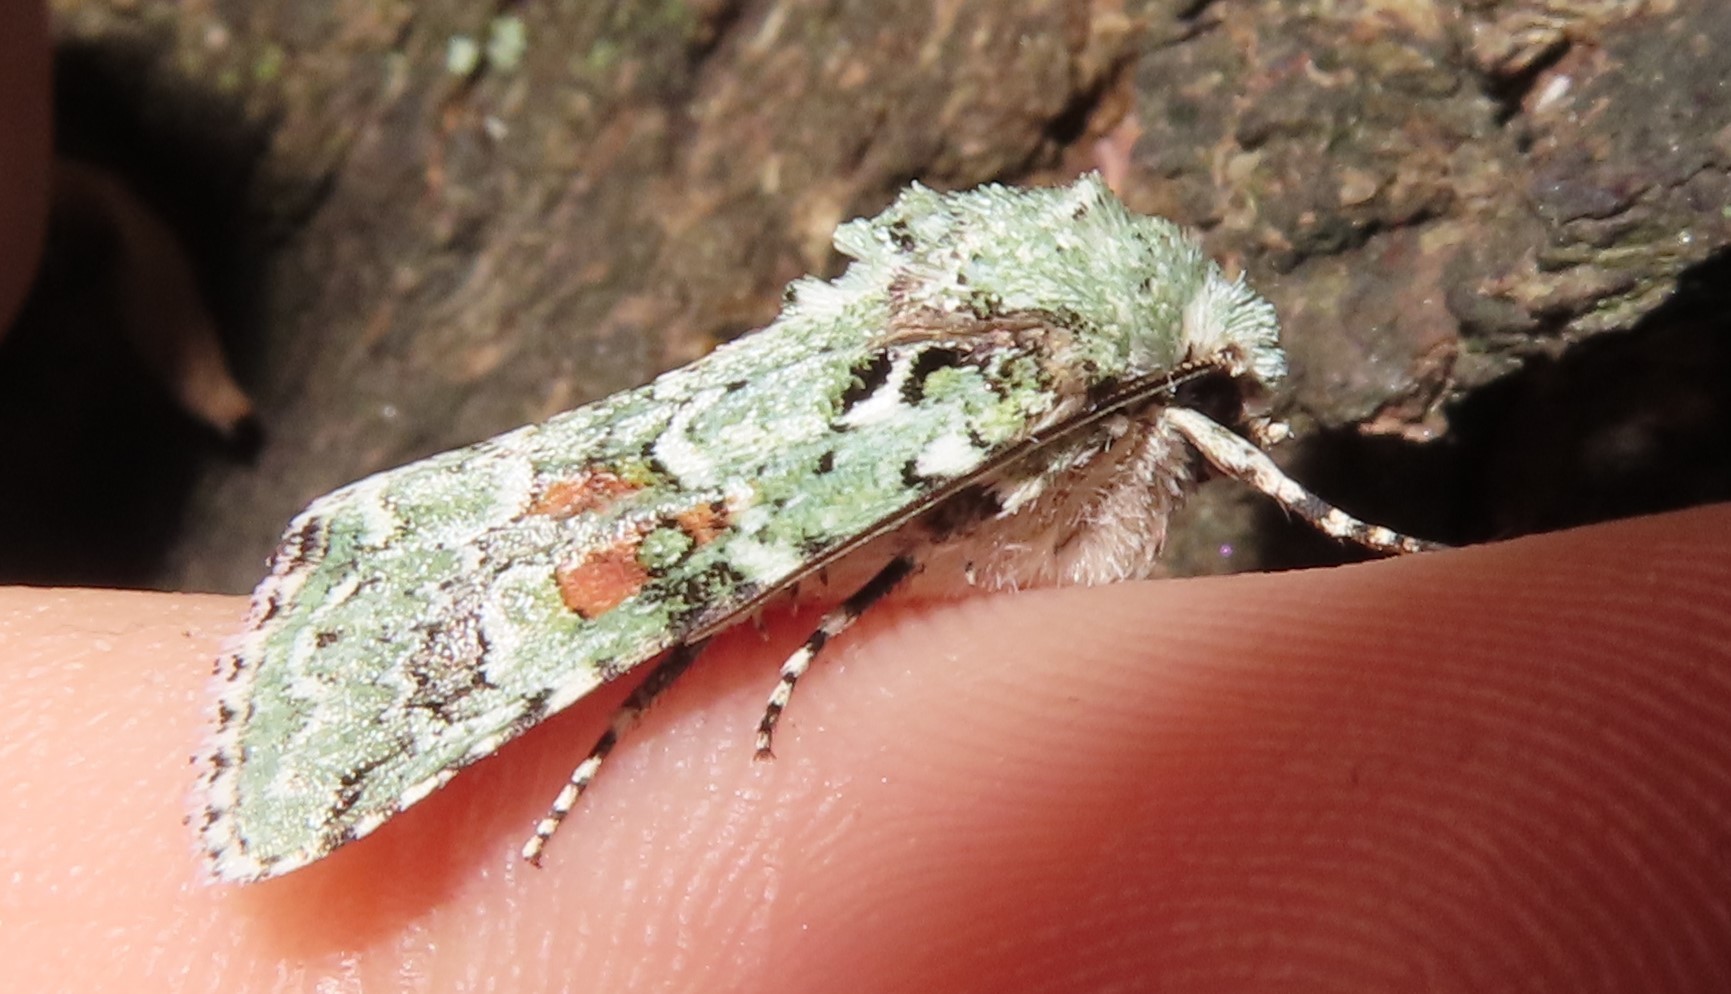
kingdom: Animalia
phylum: Arthropoda
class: Insecta
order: Lepidoptera
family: Noctuidae
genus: Lacinipolia
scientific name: Lacinipolia laudabilis
